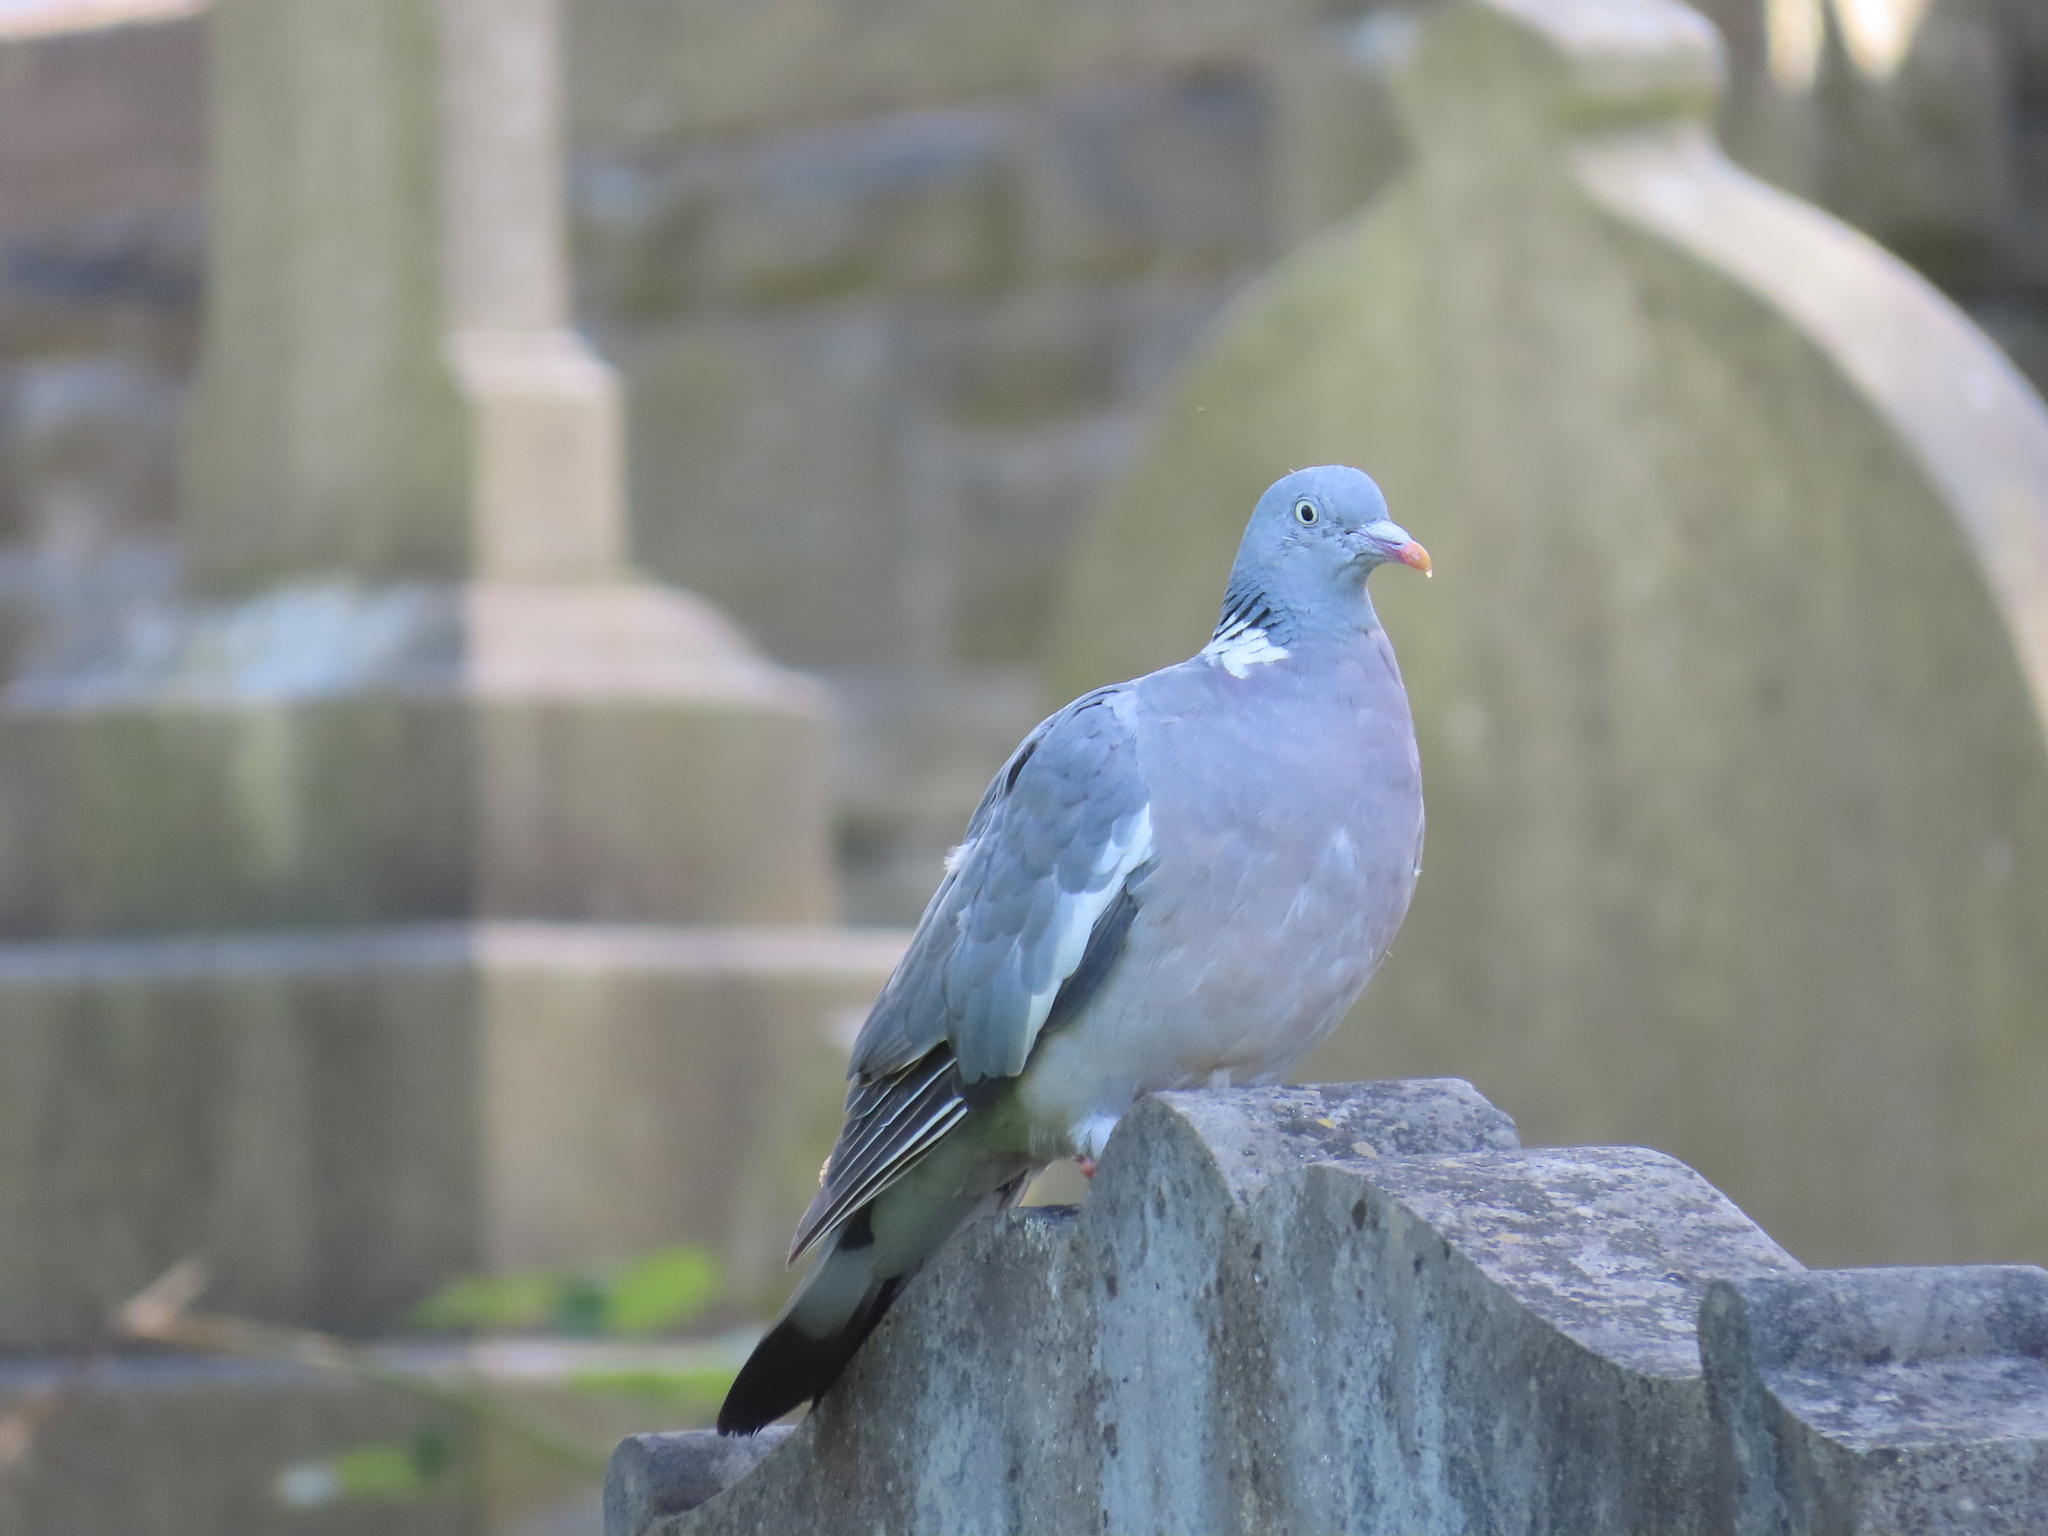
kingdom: Animalia
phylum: Chordata
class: Aves
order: Columbiformes
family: Columbidae
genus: Columba
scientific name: Columba palumbus
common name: Common wood pigeon
